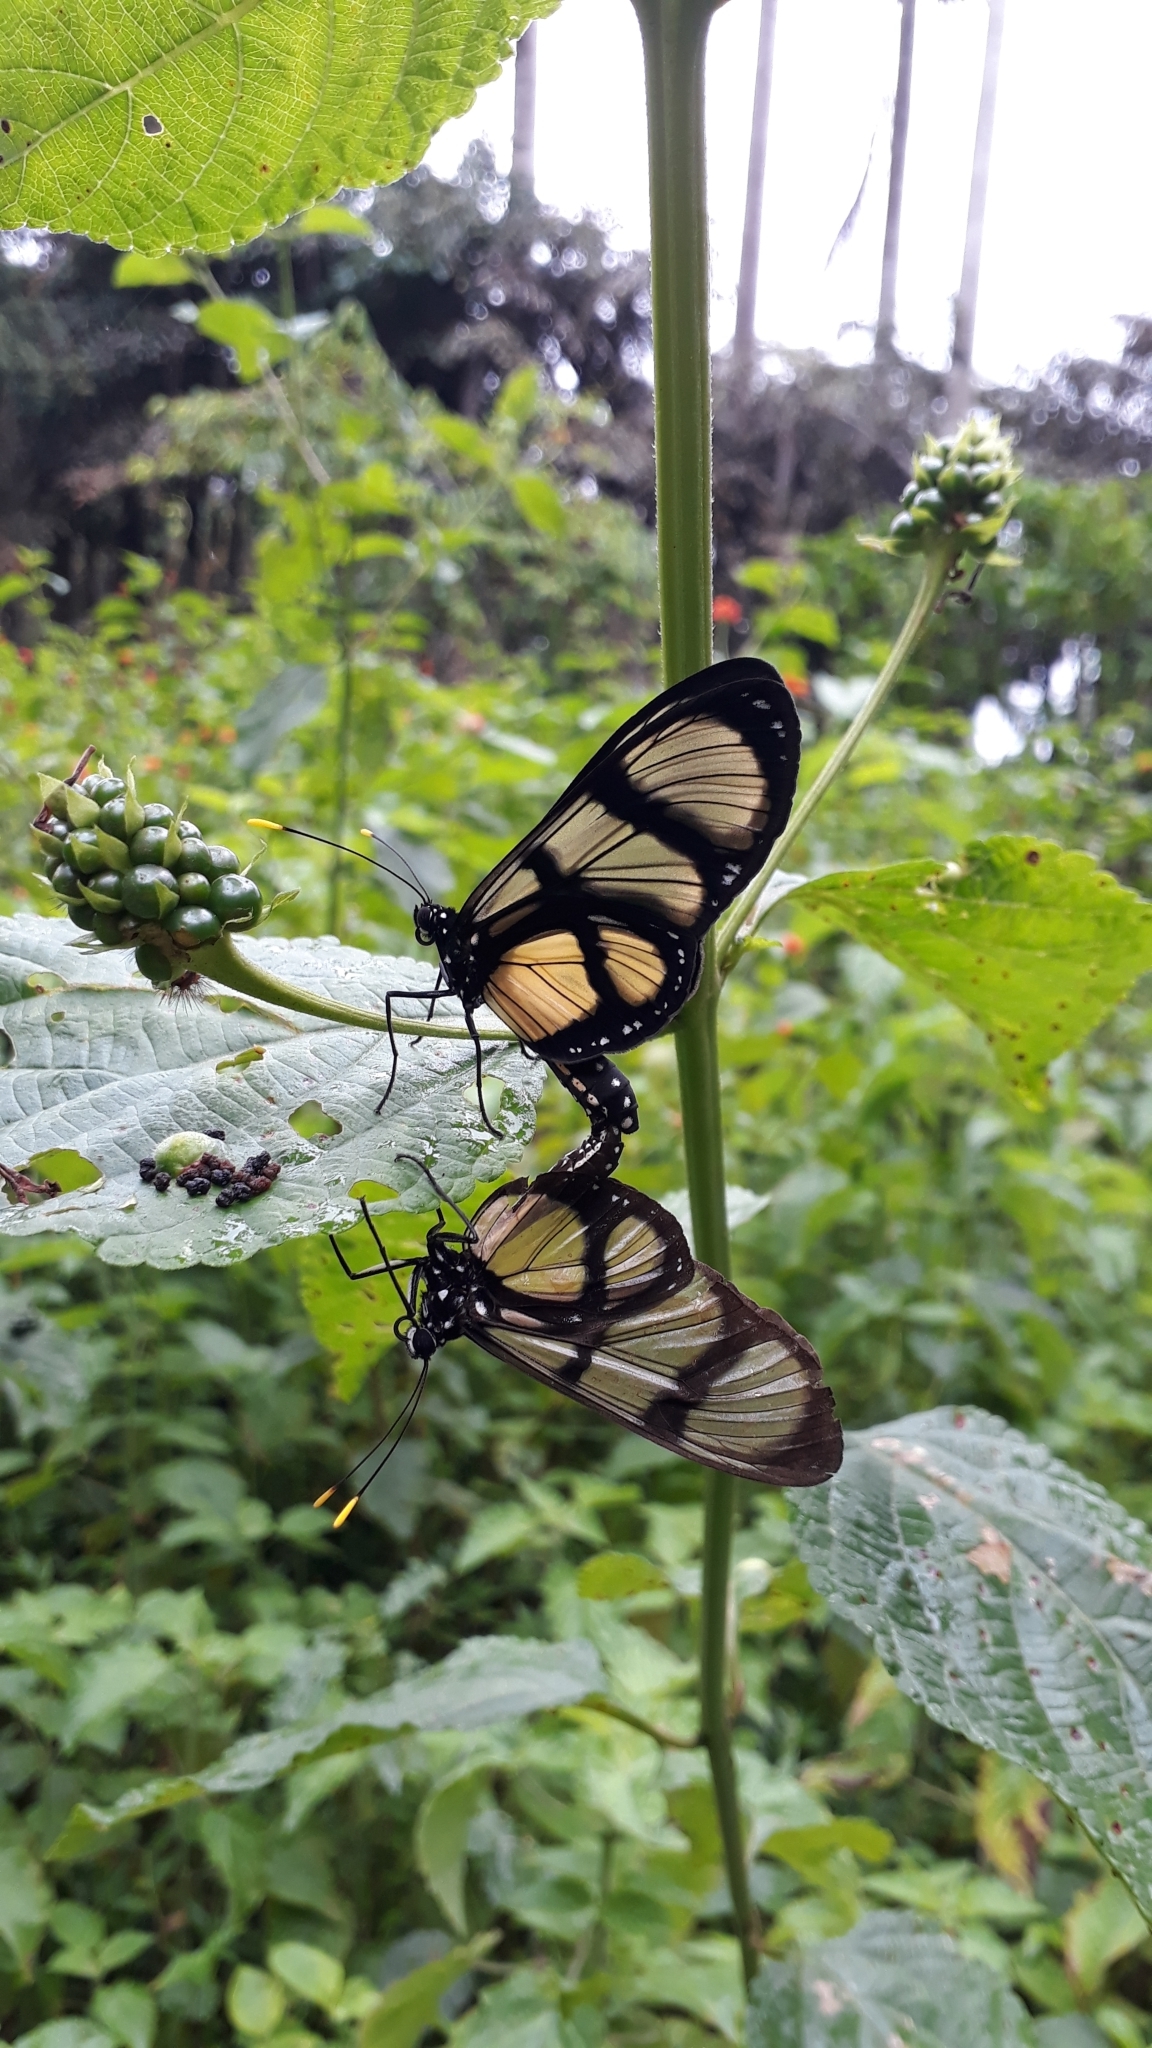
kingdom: Animalia
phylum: Arthropoda
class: Insecta
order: Lepidoptera
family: Nymphalidae
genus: Methona
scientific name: Methona confusa
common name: Confusa tigerwing
